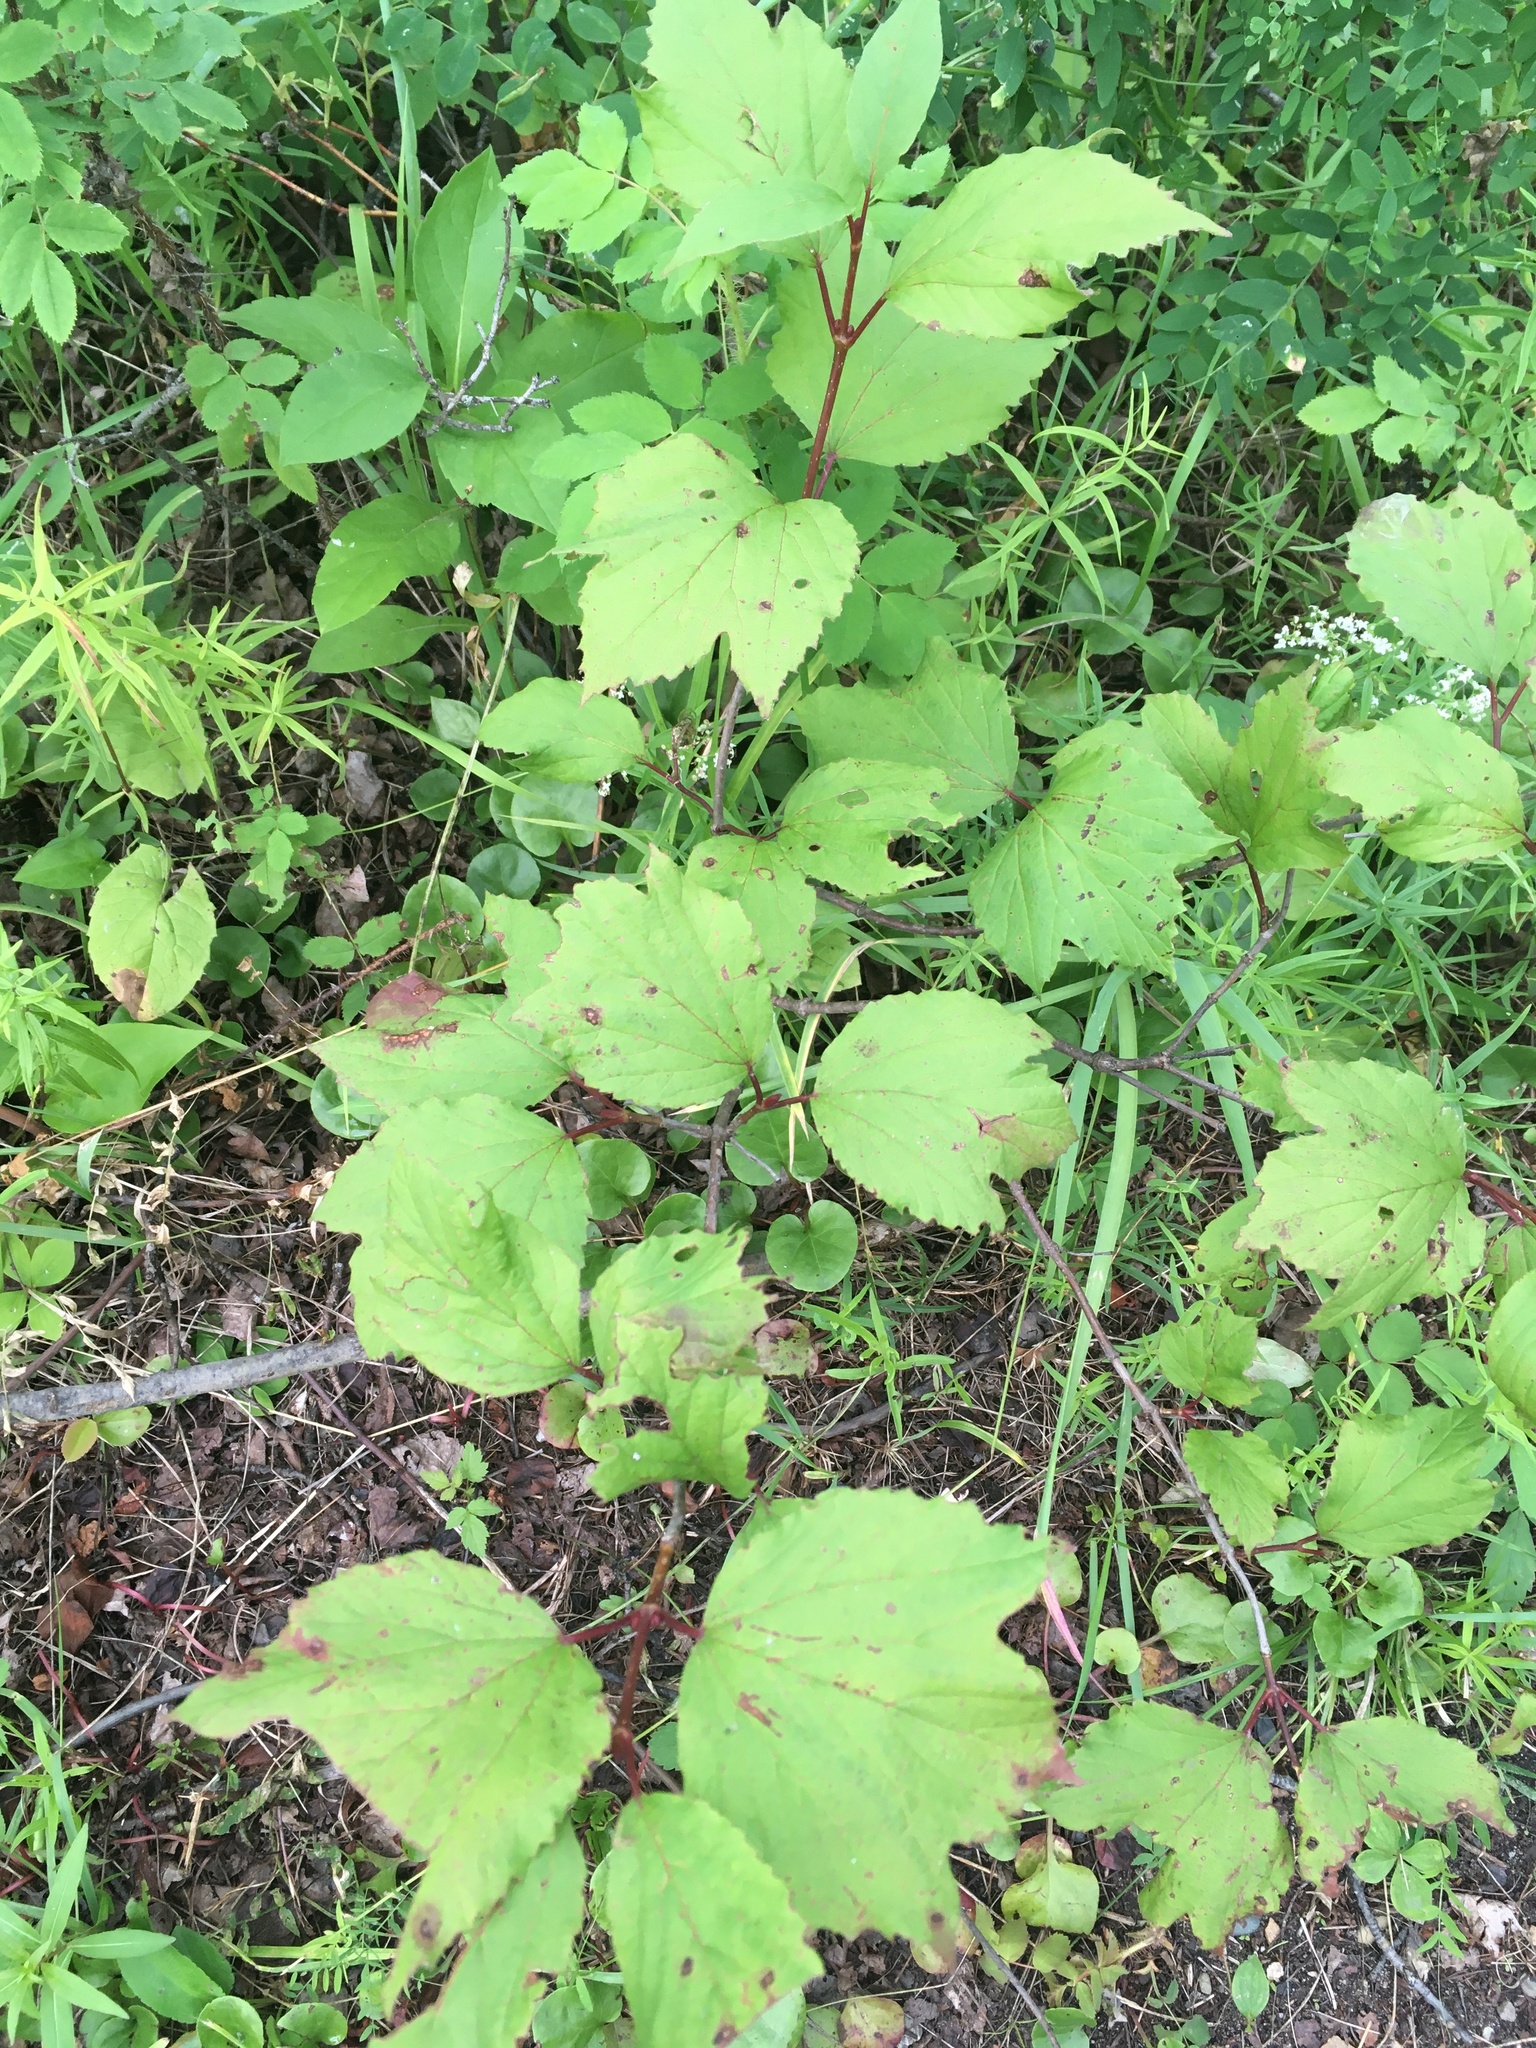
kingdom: Plantae
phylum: Tracheophyta
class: Magnoliopsida
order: Dipsacales
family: Viburnaceae
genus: Viburnum
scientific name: Viburnum edule
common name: Mooseberry
